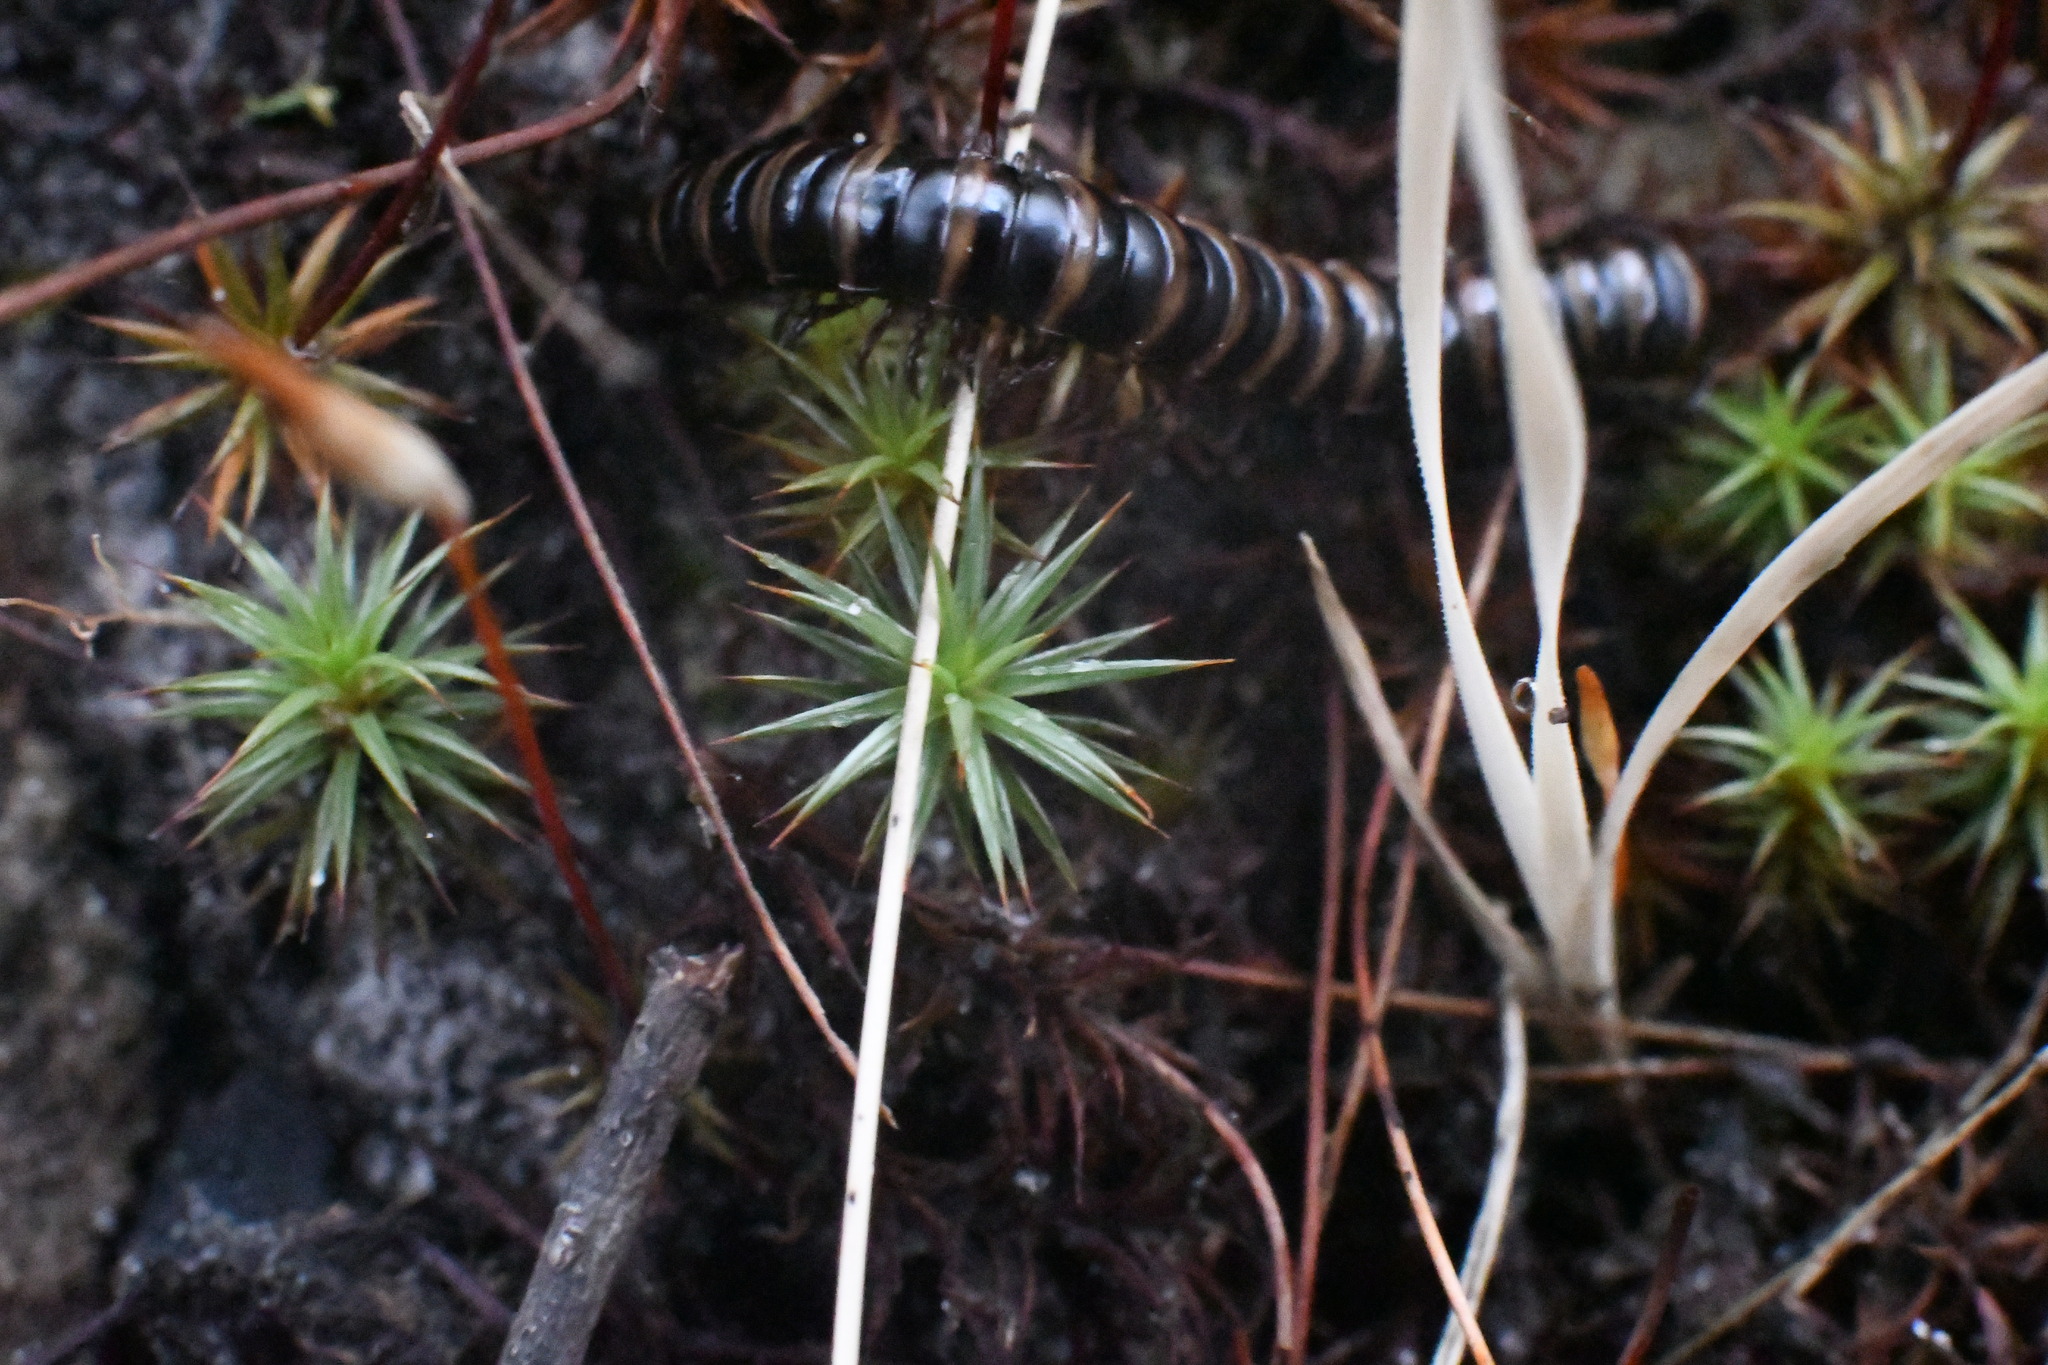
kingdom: Plantae
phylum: Bryophyta
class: Polytrichopsida
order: Polytrichales
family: Polytrichaceae
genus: Polytrichum
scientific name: Polytrichum juniperinum
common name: Juniper haircap moss
